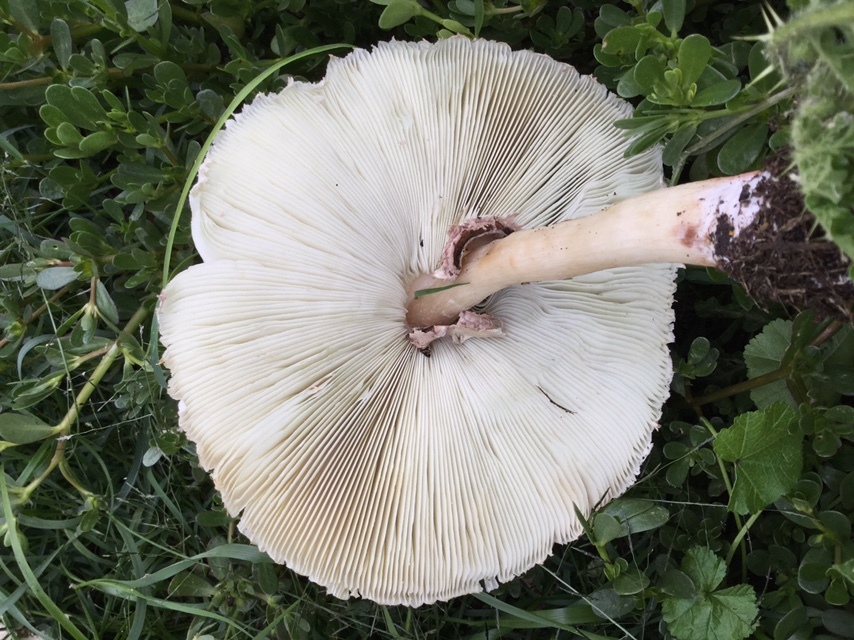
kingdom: Fungi
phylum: Basidiomycota
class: Agaricomycetes
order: Agaricales
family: Agaricaceae
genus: Chlorophyllum
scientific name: Chlorophyllum molybdites
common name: False parasol
